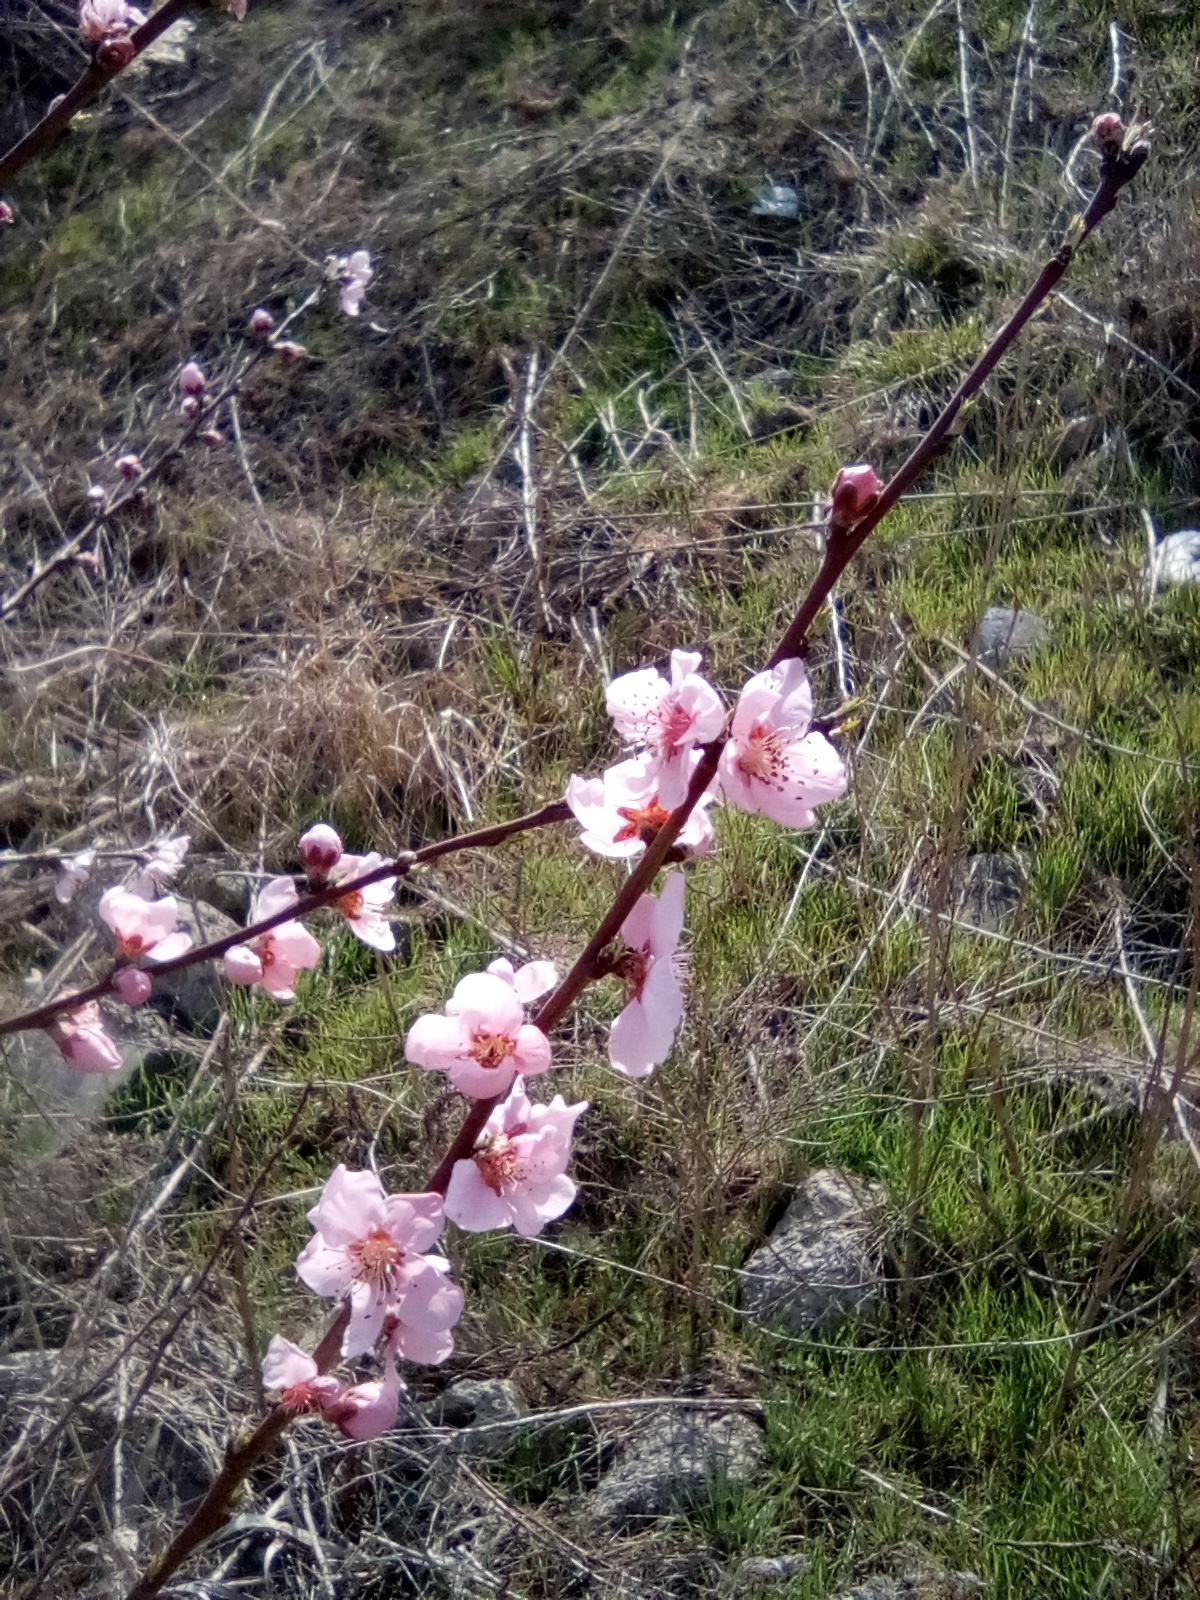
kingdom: Plantae
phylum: Tracheophyta
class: Magnoliopsida
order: Rosales
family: Rosaceae
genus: Prunus
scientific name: Prunus persica
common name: Peach
